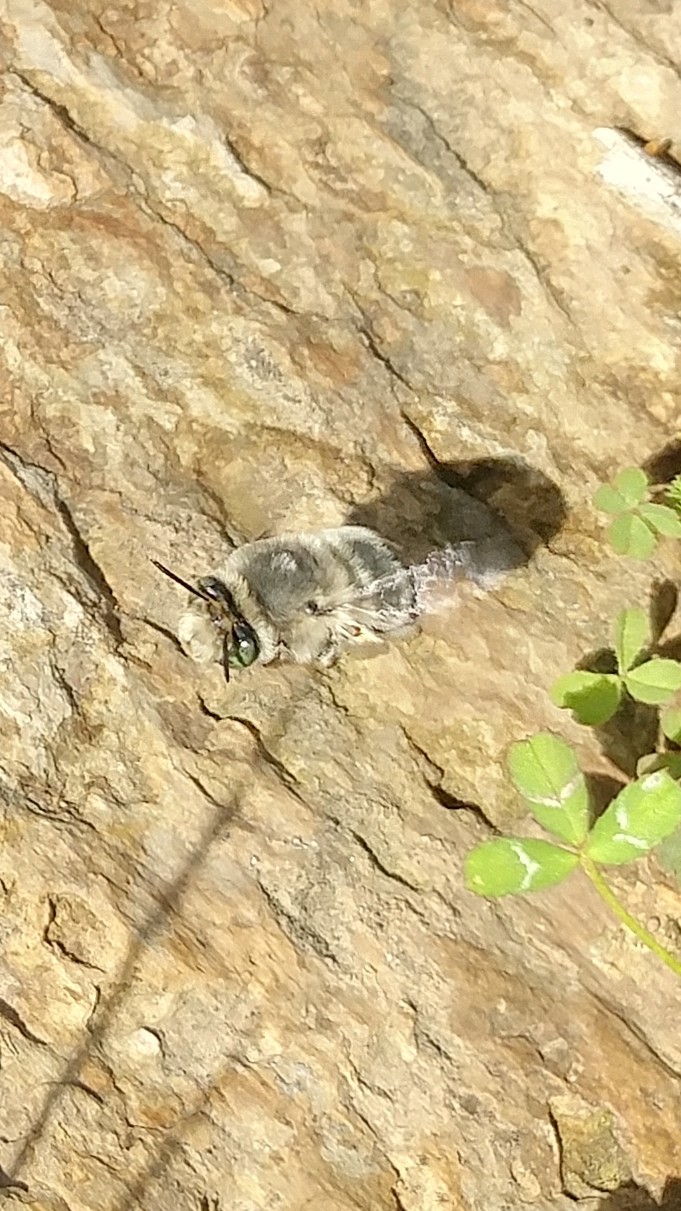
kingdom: Animalia
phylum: Arthropoda
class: Insecta
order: Hymenoptera
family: Apidae
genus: Anthophora
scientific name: Anthophora edwardsii
